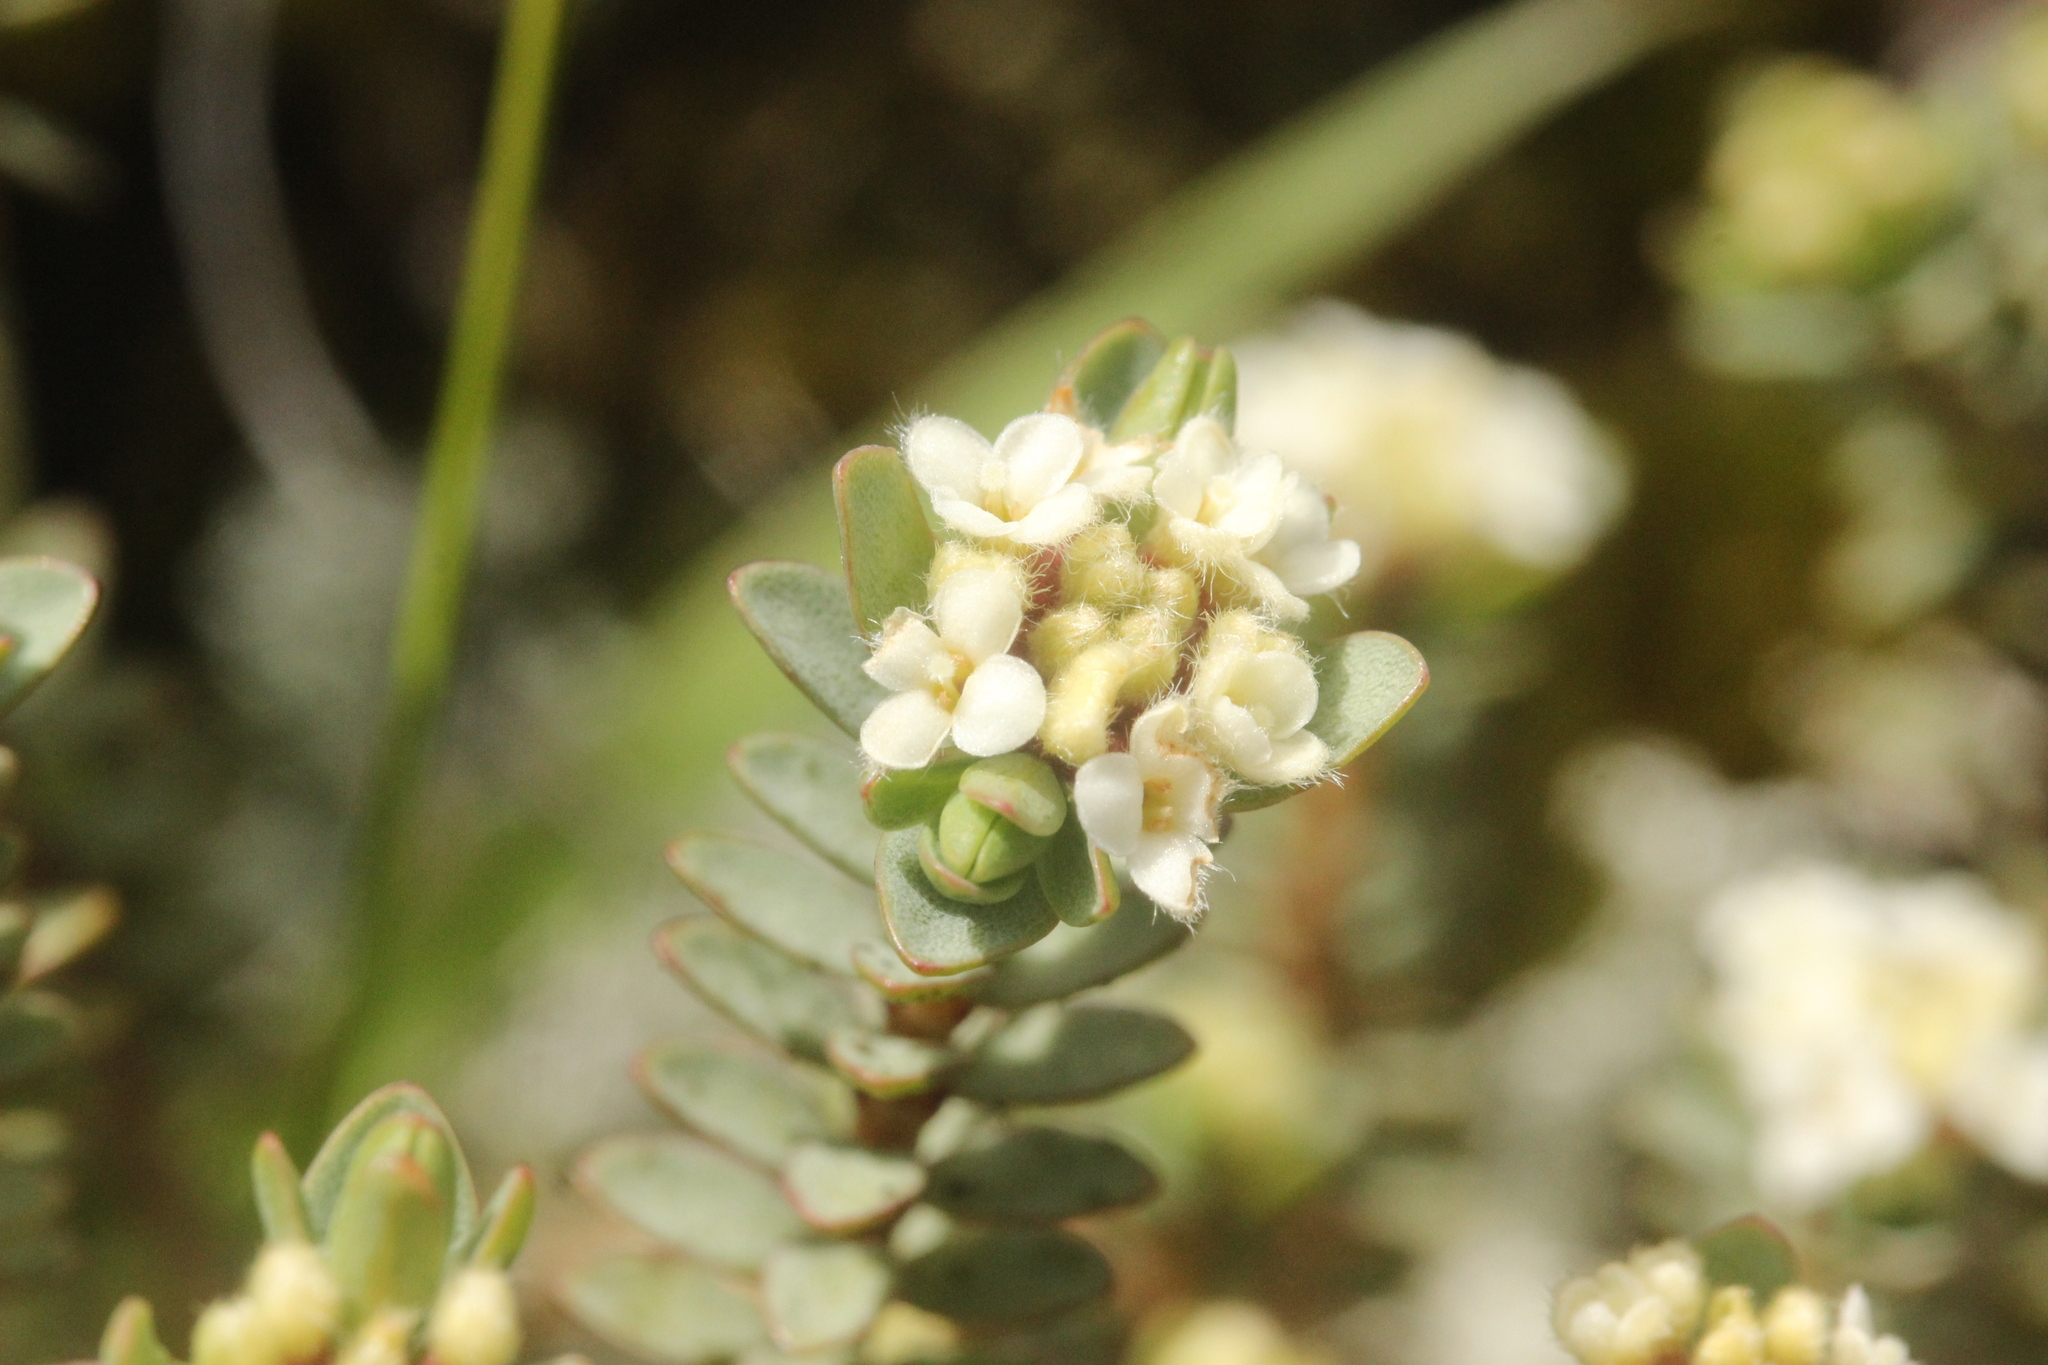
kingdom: Plantae
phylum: Tracheophyta
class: Magnoliopsida
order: Malvales
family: Thymelaeaceae
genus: Pimelea
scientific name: Pimelea prostrata
